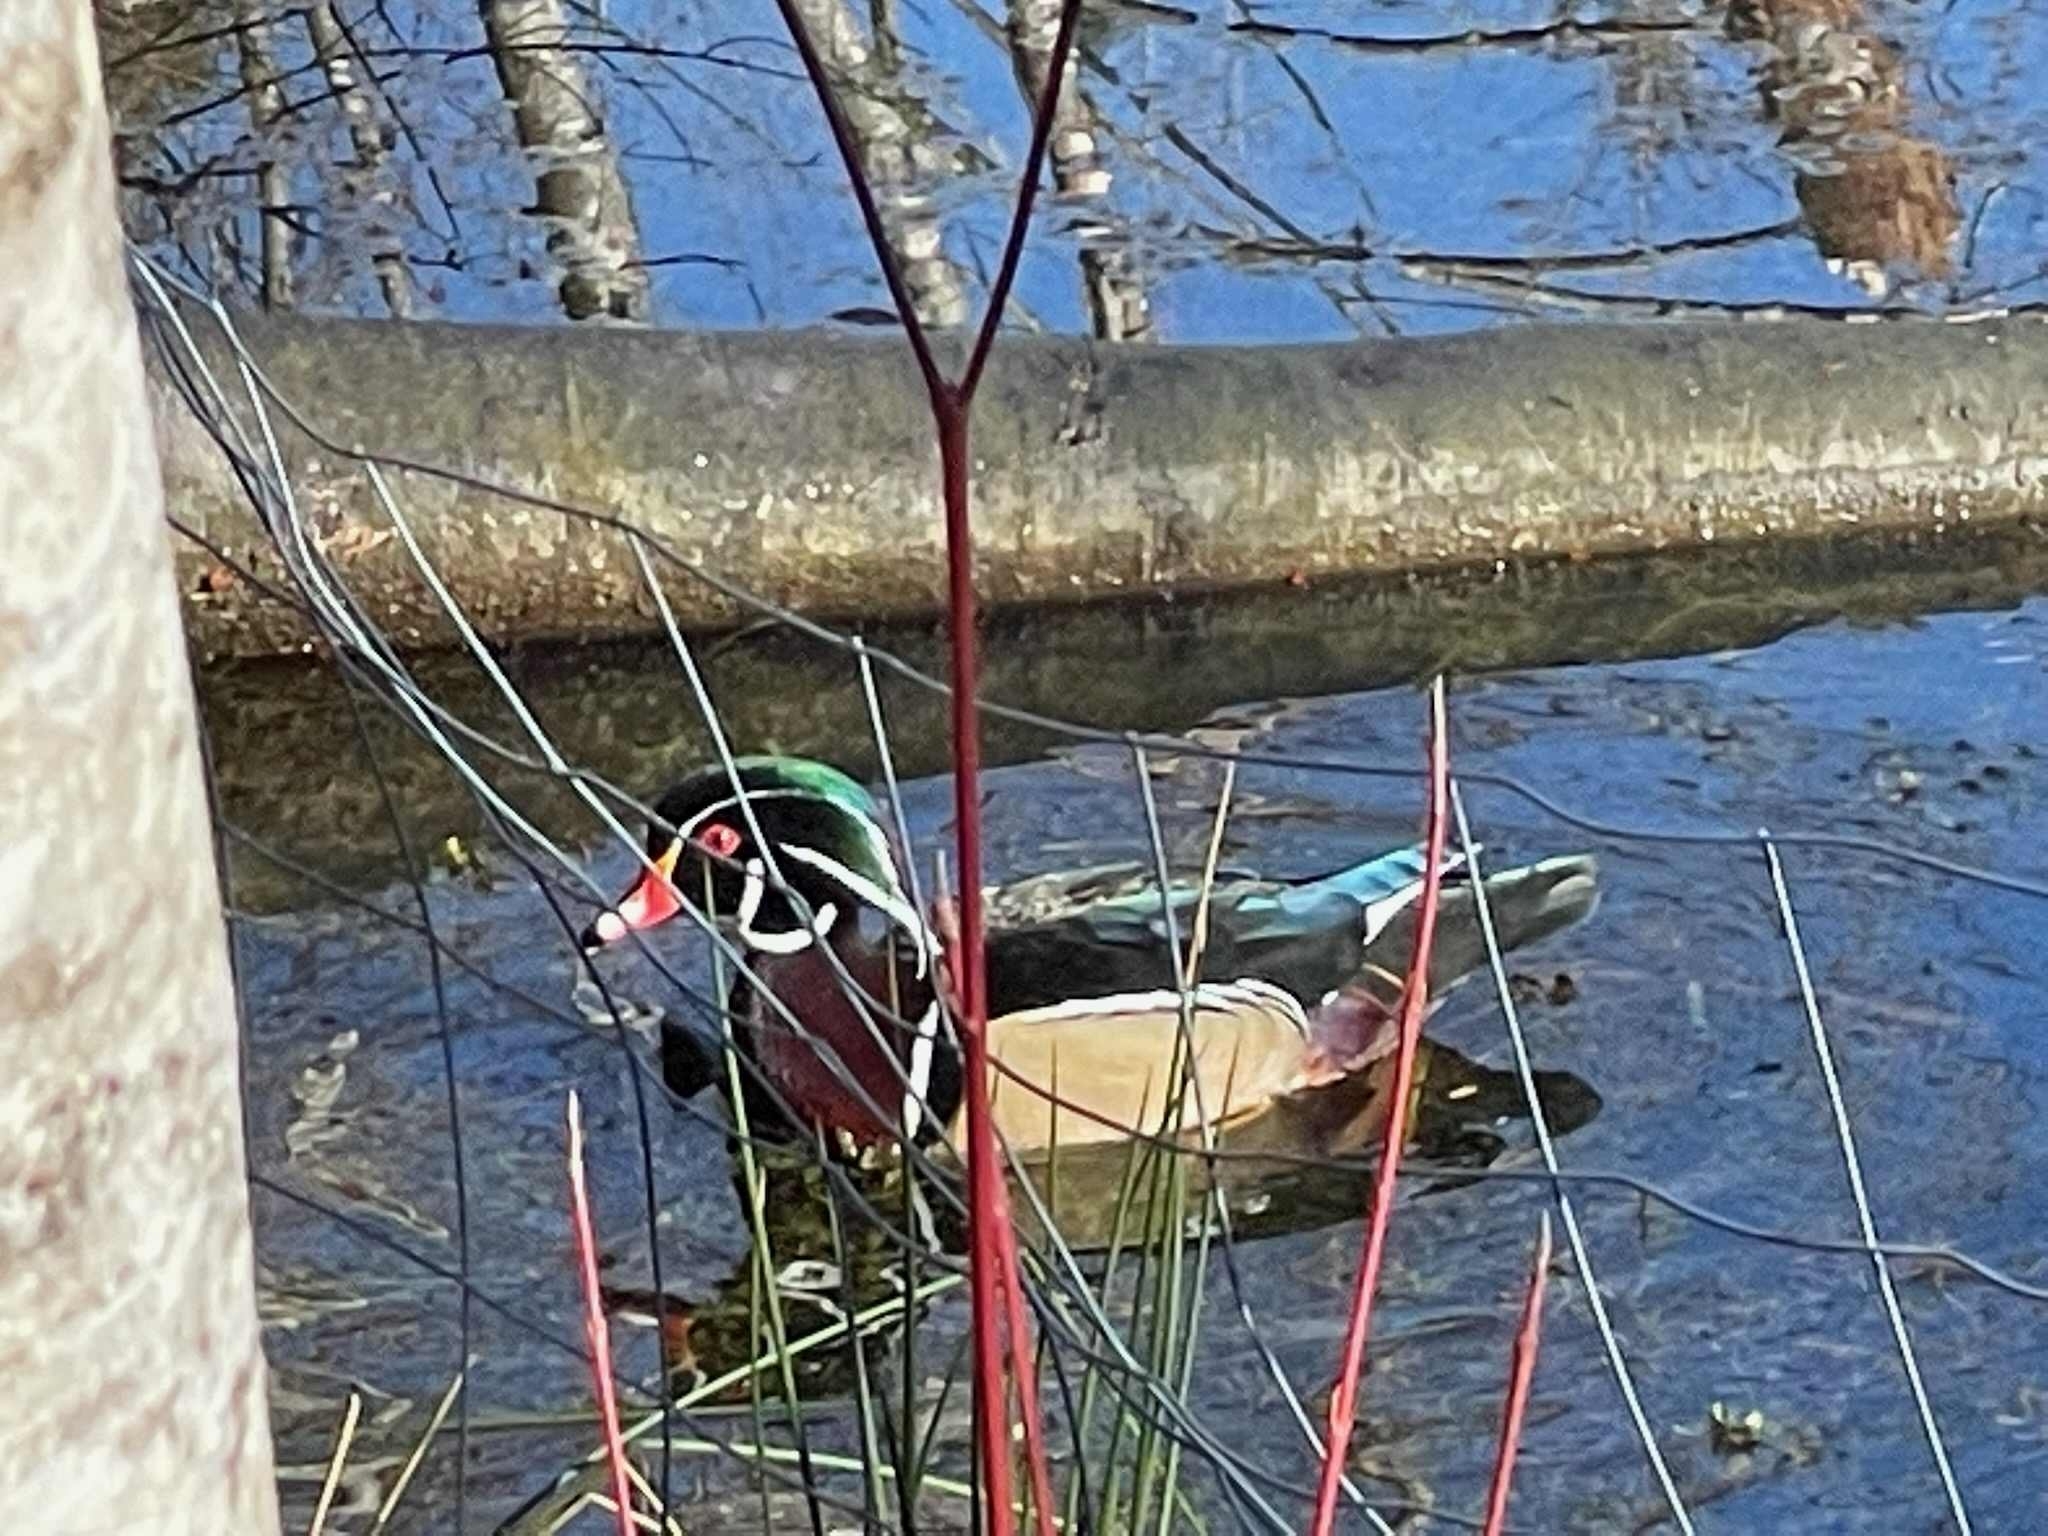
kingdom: Animalia
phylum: Chordata
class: Aves
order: Anseriformes
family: Anatidae
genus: Aix
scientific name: Aix sponsa
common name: Wood duck
